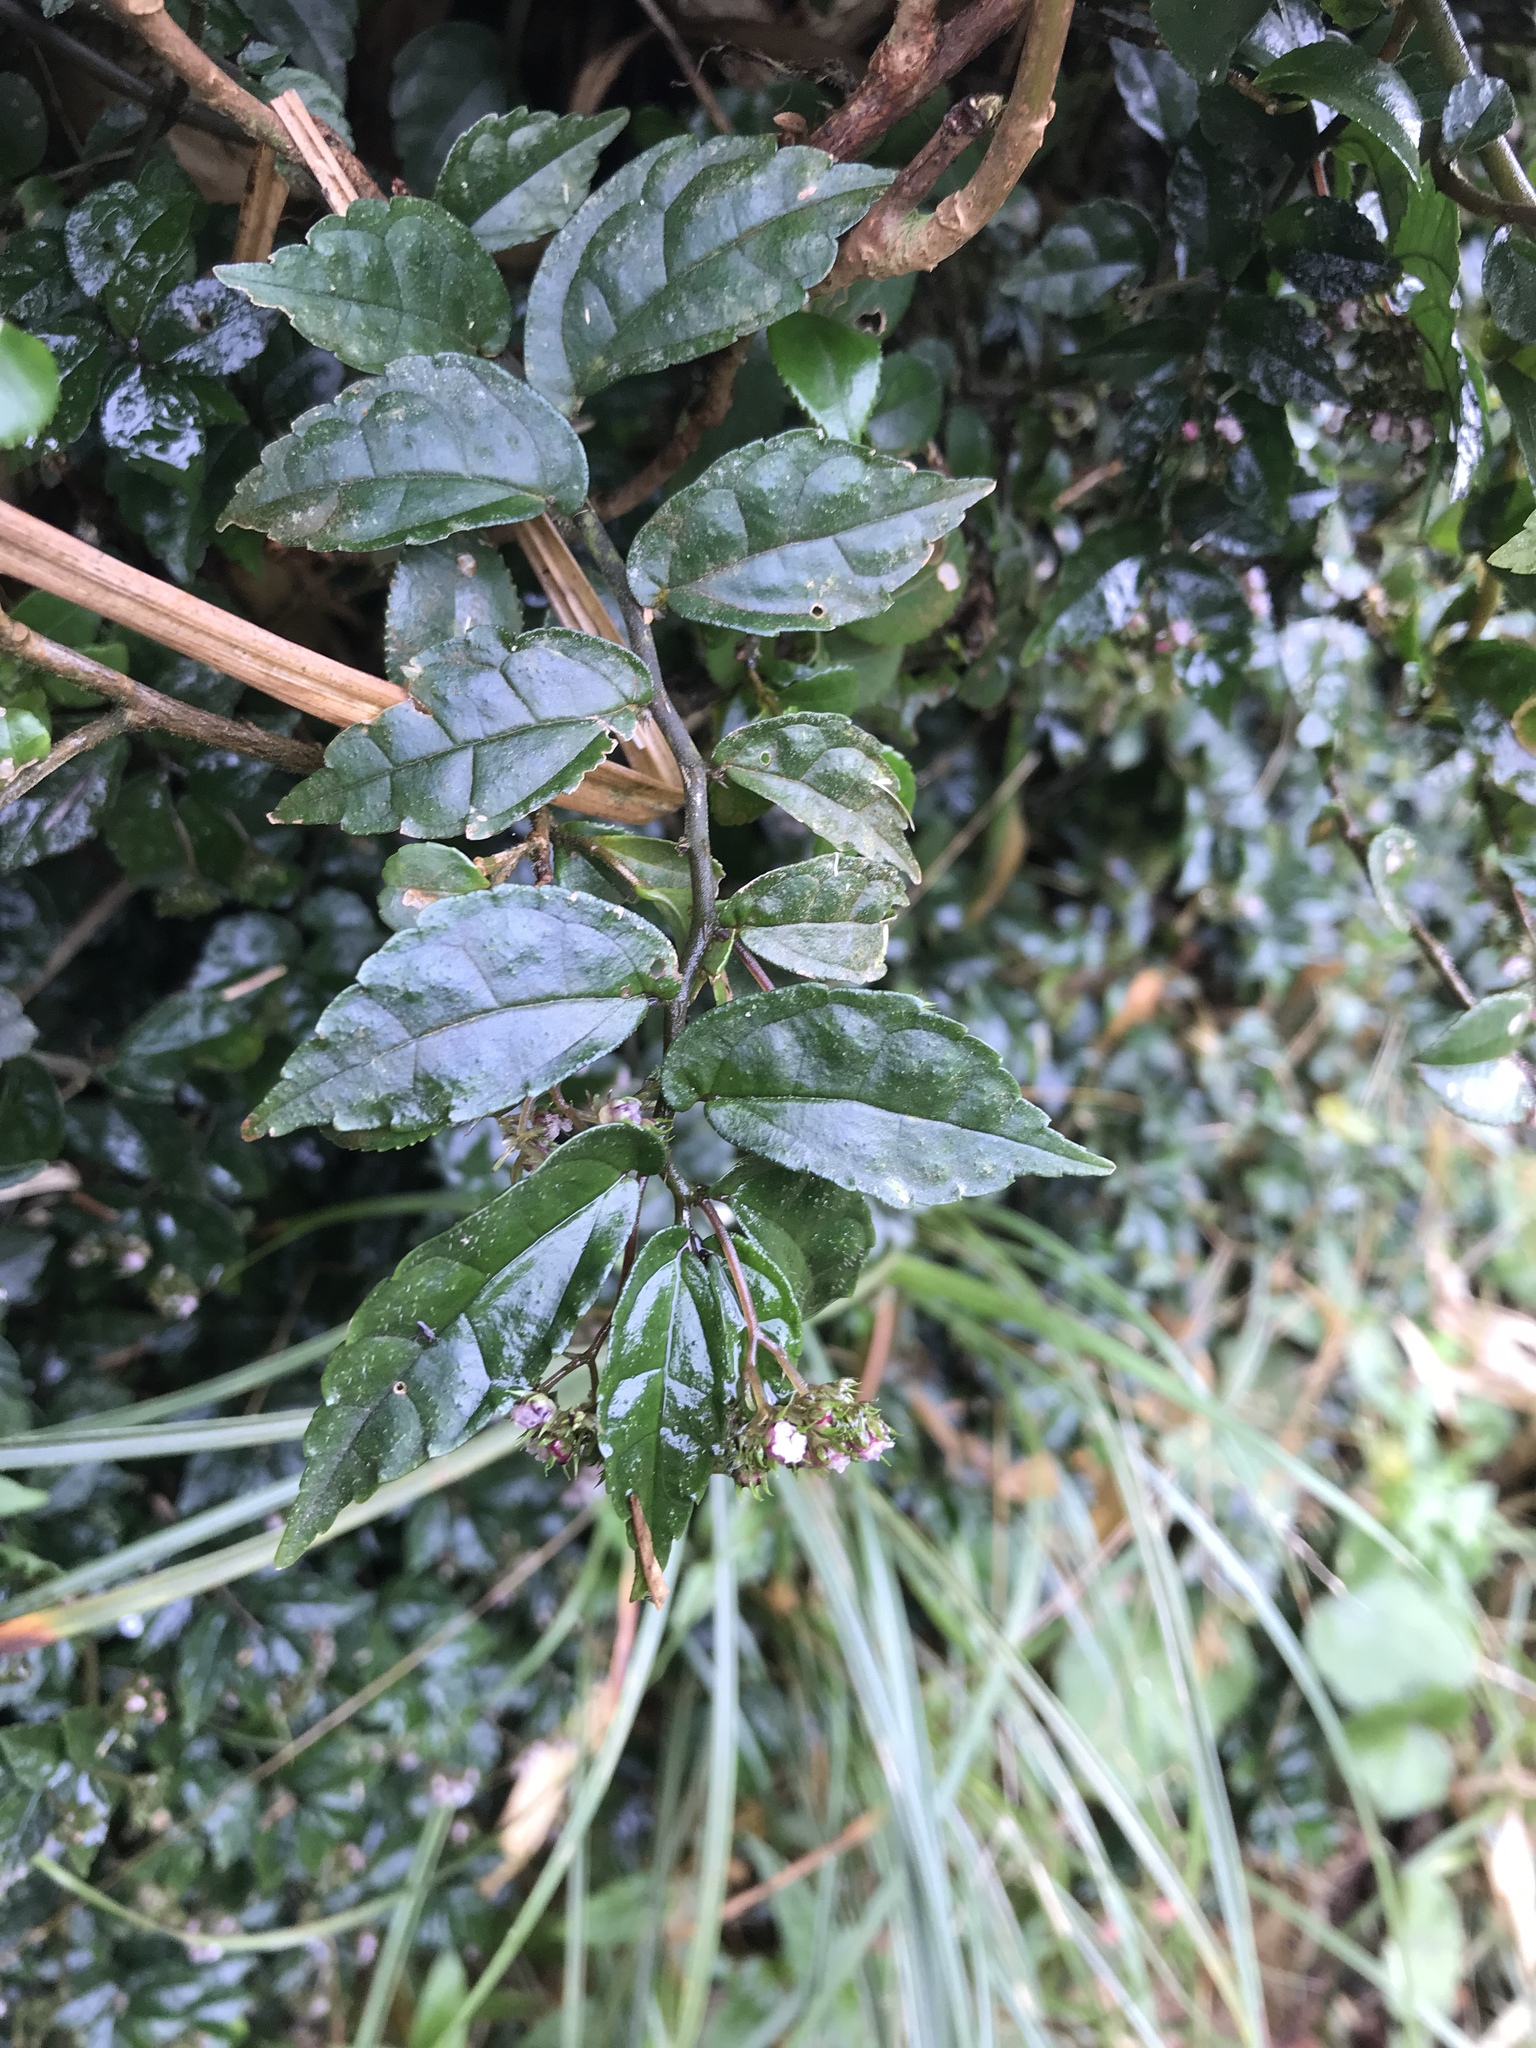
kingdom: Plantae
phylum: Tracheophyta
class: Magnoliopsida
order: Rosales
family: Urticaceae
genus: Elatostema
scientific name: Elatostema radicans
